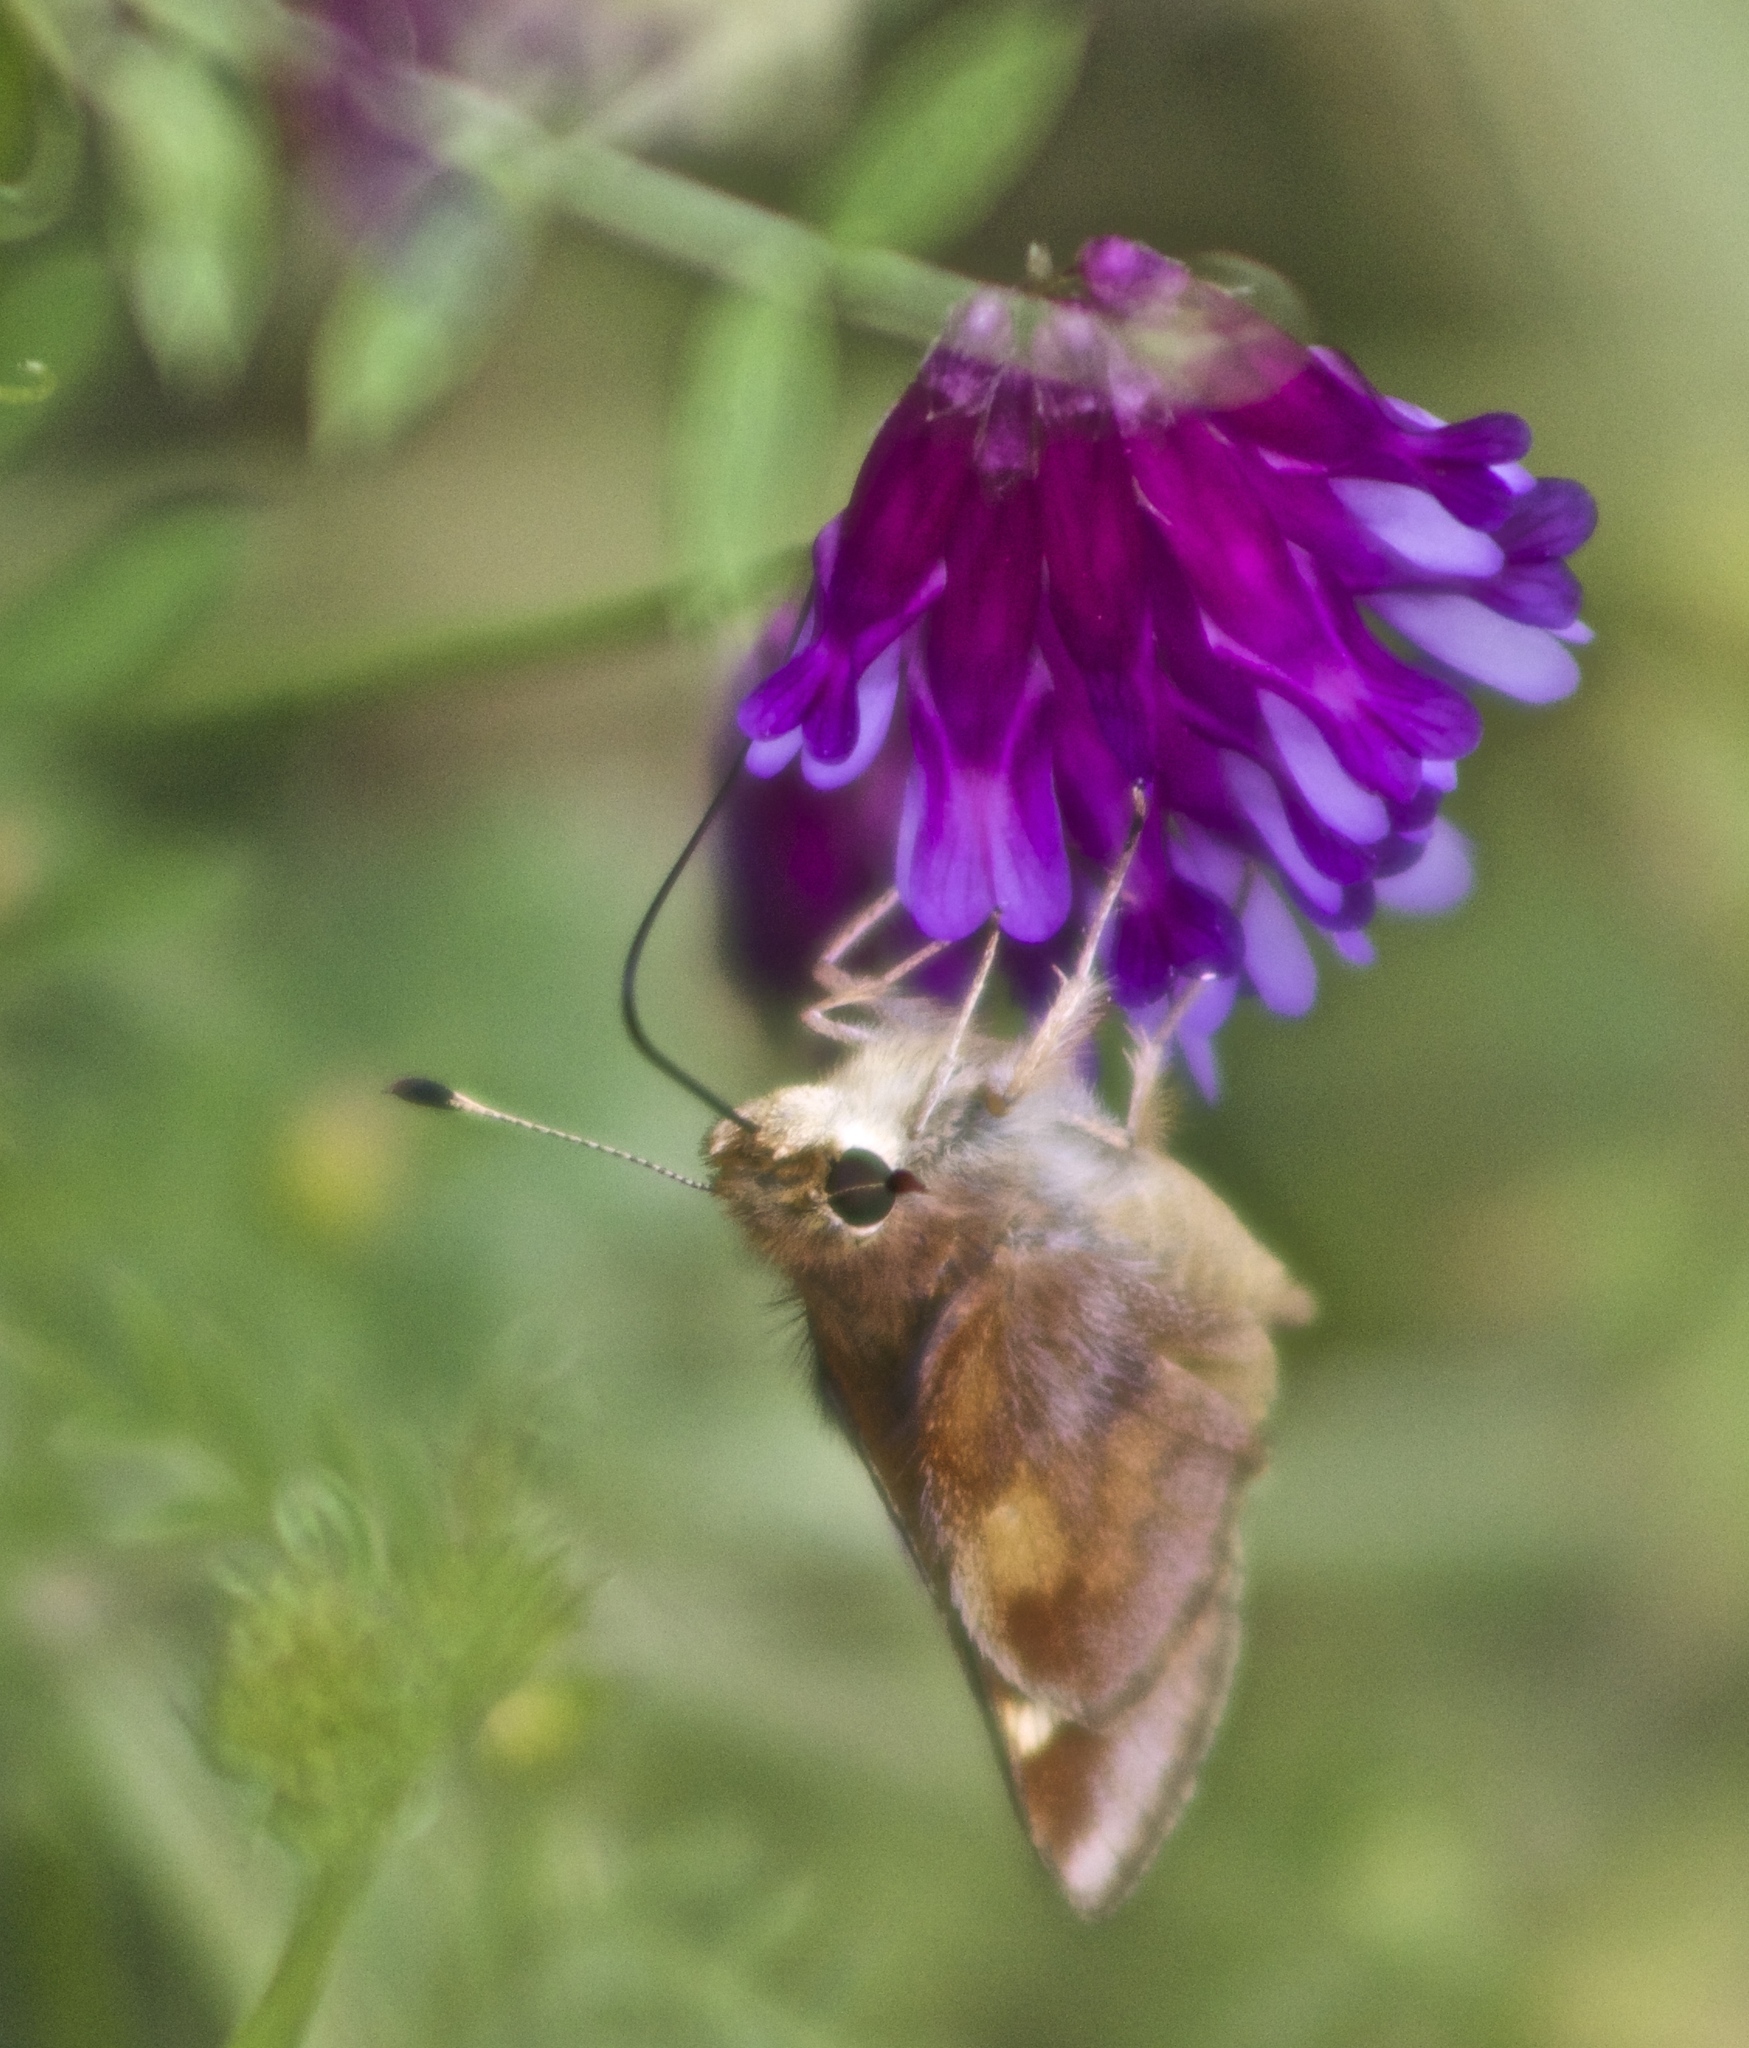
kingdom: Animalia
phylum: Arthropoda
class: Insecta
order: Lepidoptera
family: Hesperiidae
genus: Lon
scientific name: Lon melane
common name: Umber skipper
